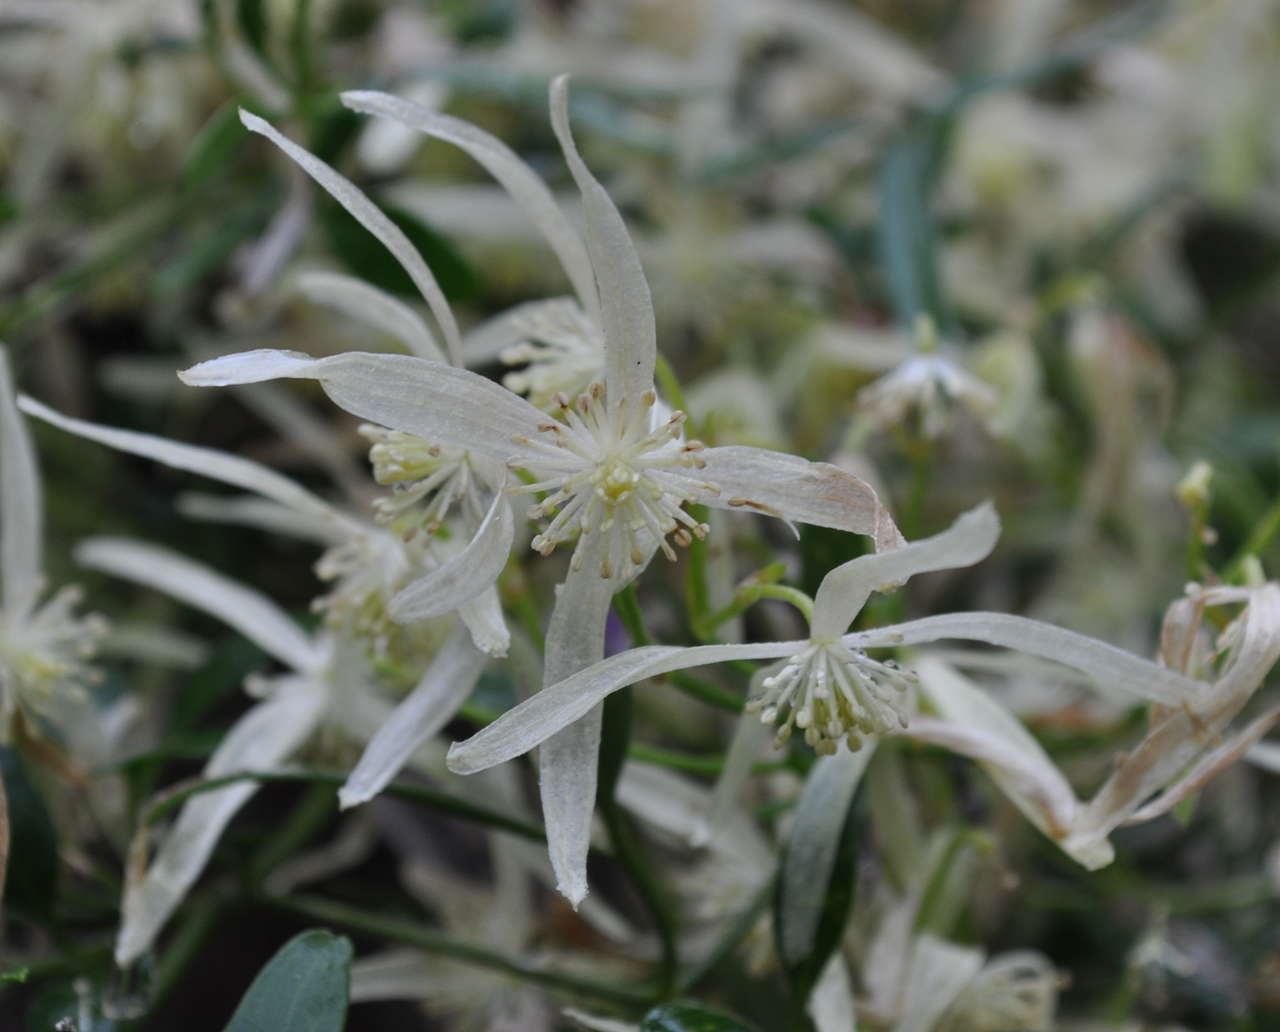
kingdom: Plantae
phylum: Tracheophyta
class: Magnoliopsida
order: Ranunculales
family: Ranunculaceae
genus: Clematis
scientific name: Clematis microphylla
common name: Headachevine
